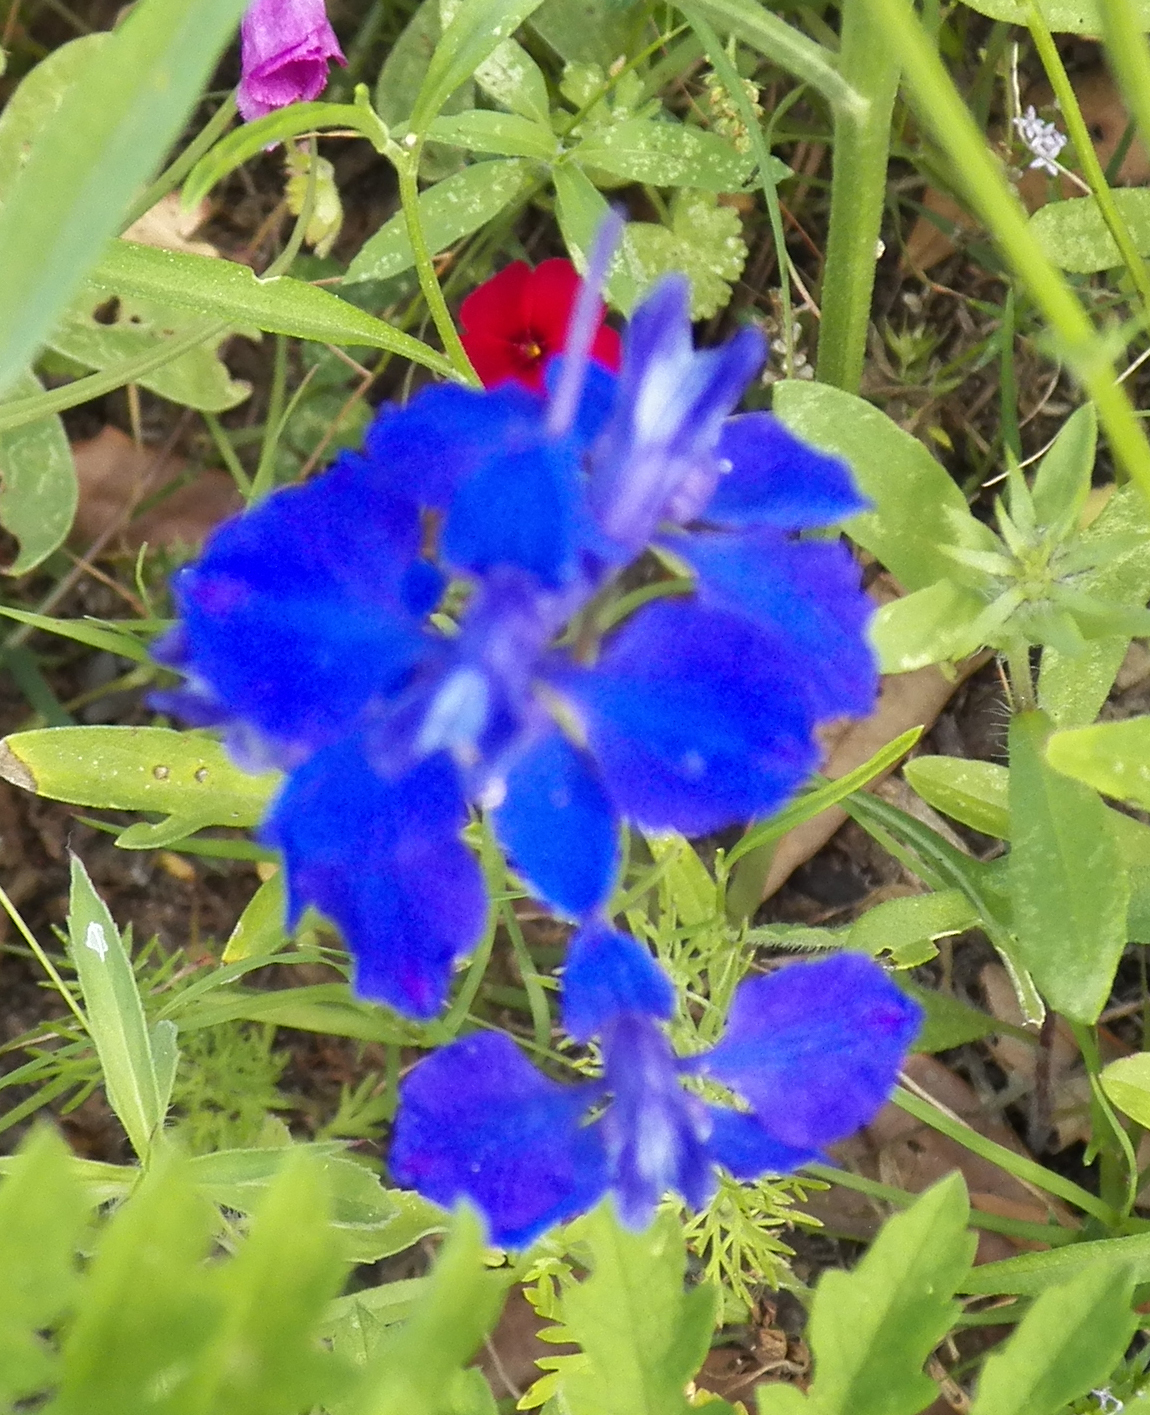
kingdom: Plantae
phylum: Tracheophyta
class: Magnoliopsida
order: Ranunculales
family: Ranunculaceae
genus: Delphinium
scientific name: Delphinium ajacis
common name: Doubtful knight's-spur
